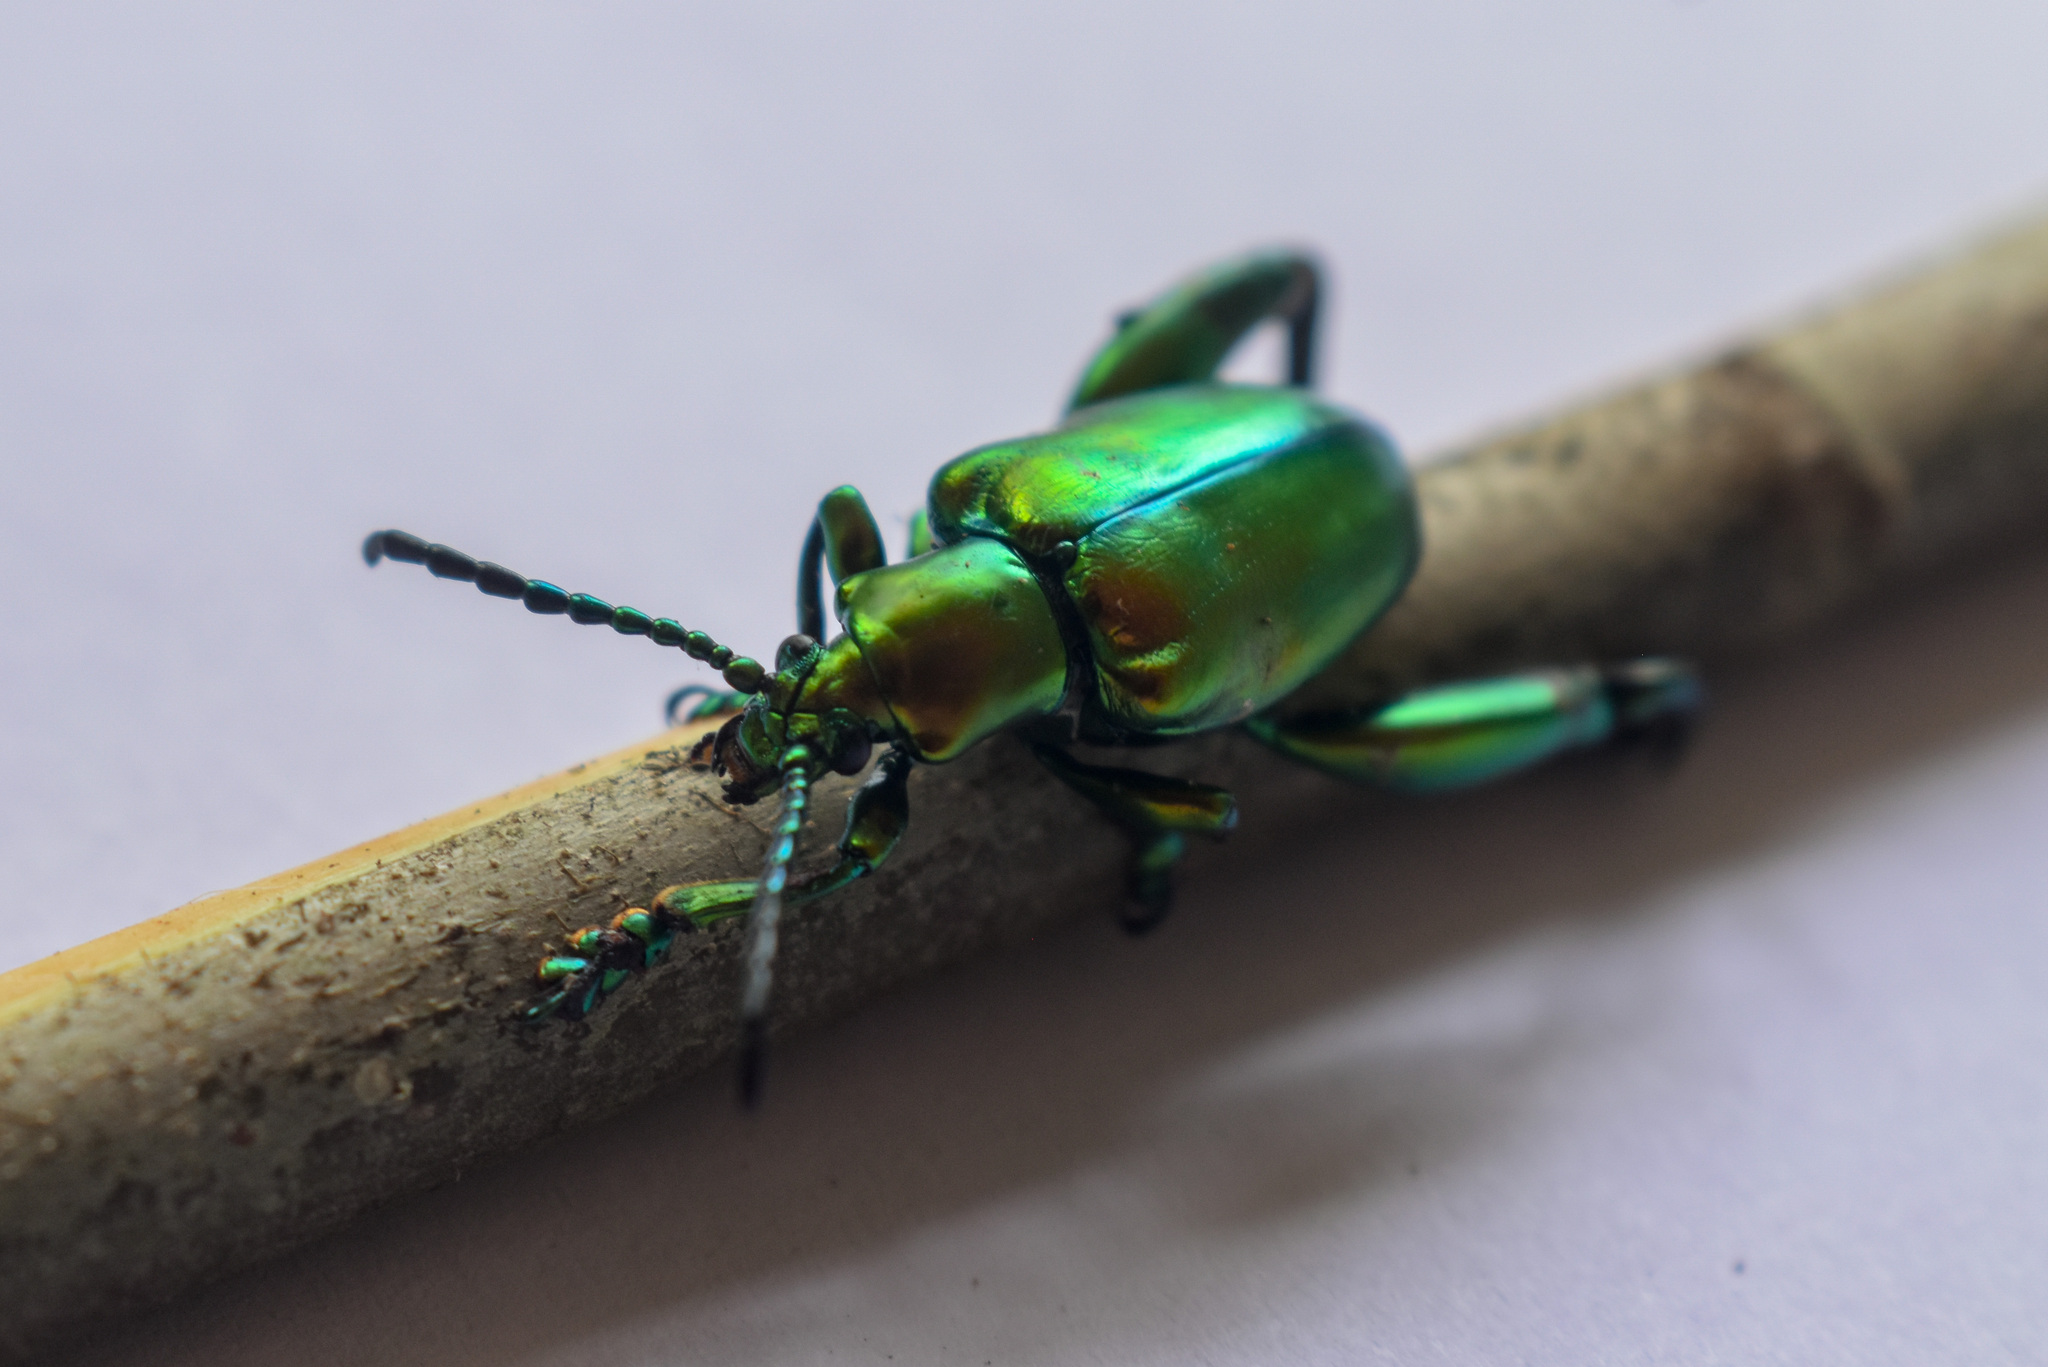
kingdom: Animalia
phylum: Arthropoda
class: Insecta
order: Coleoptera
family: Chrysomelidae
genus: Sagra
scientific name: Sagra femorata
